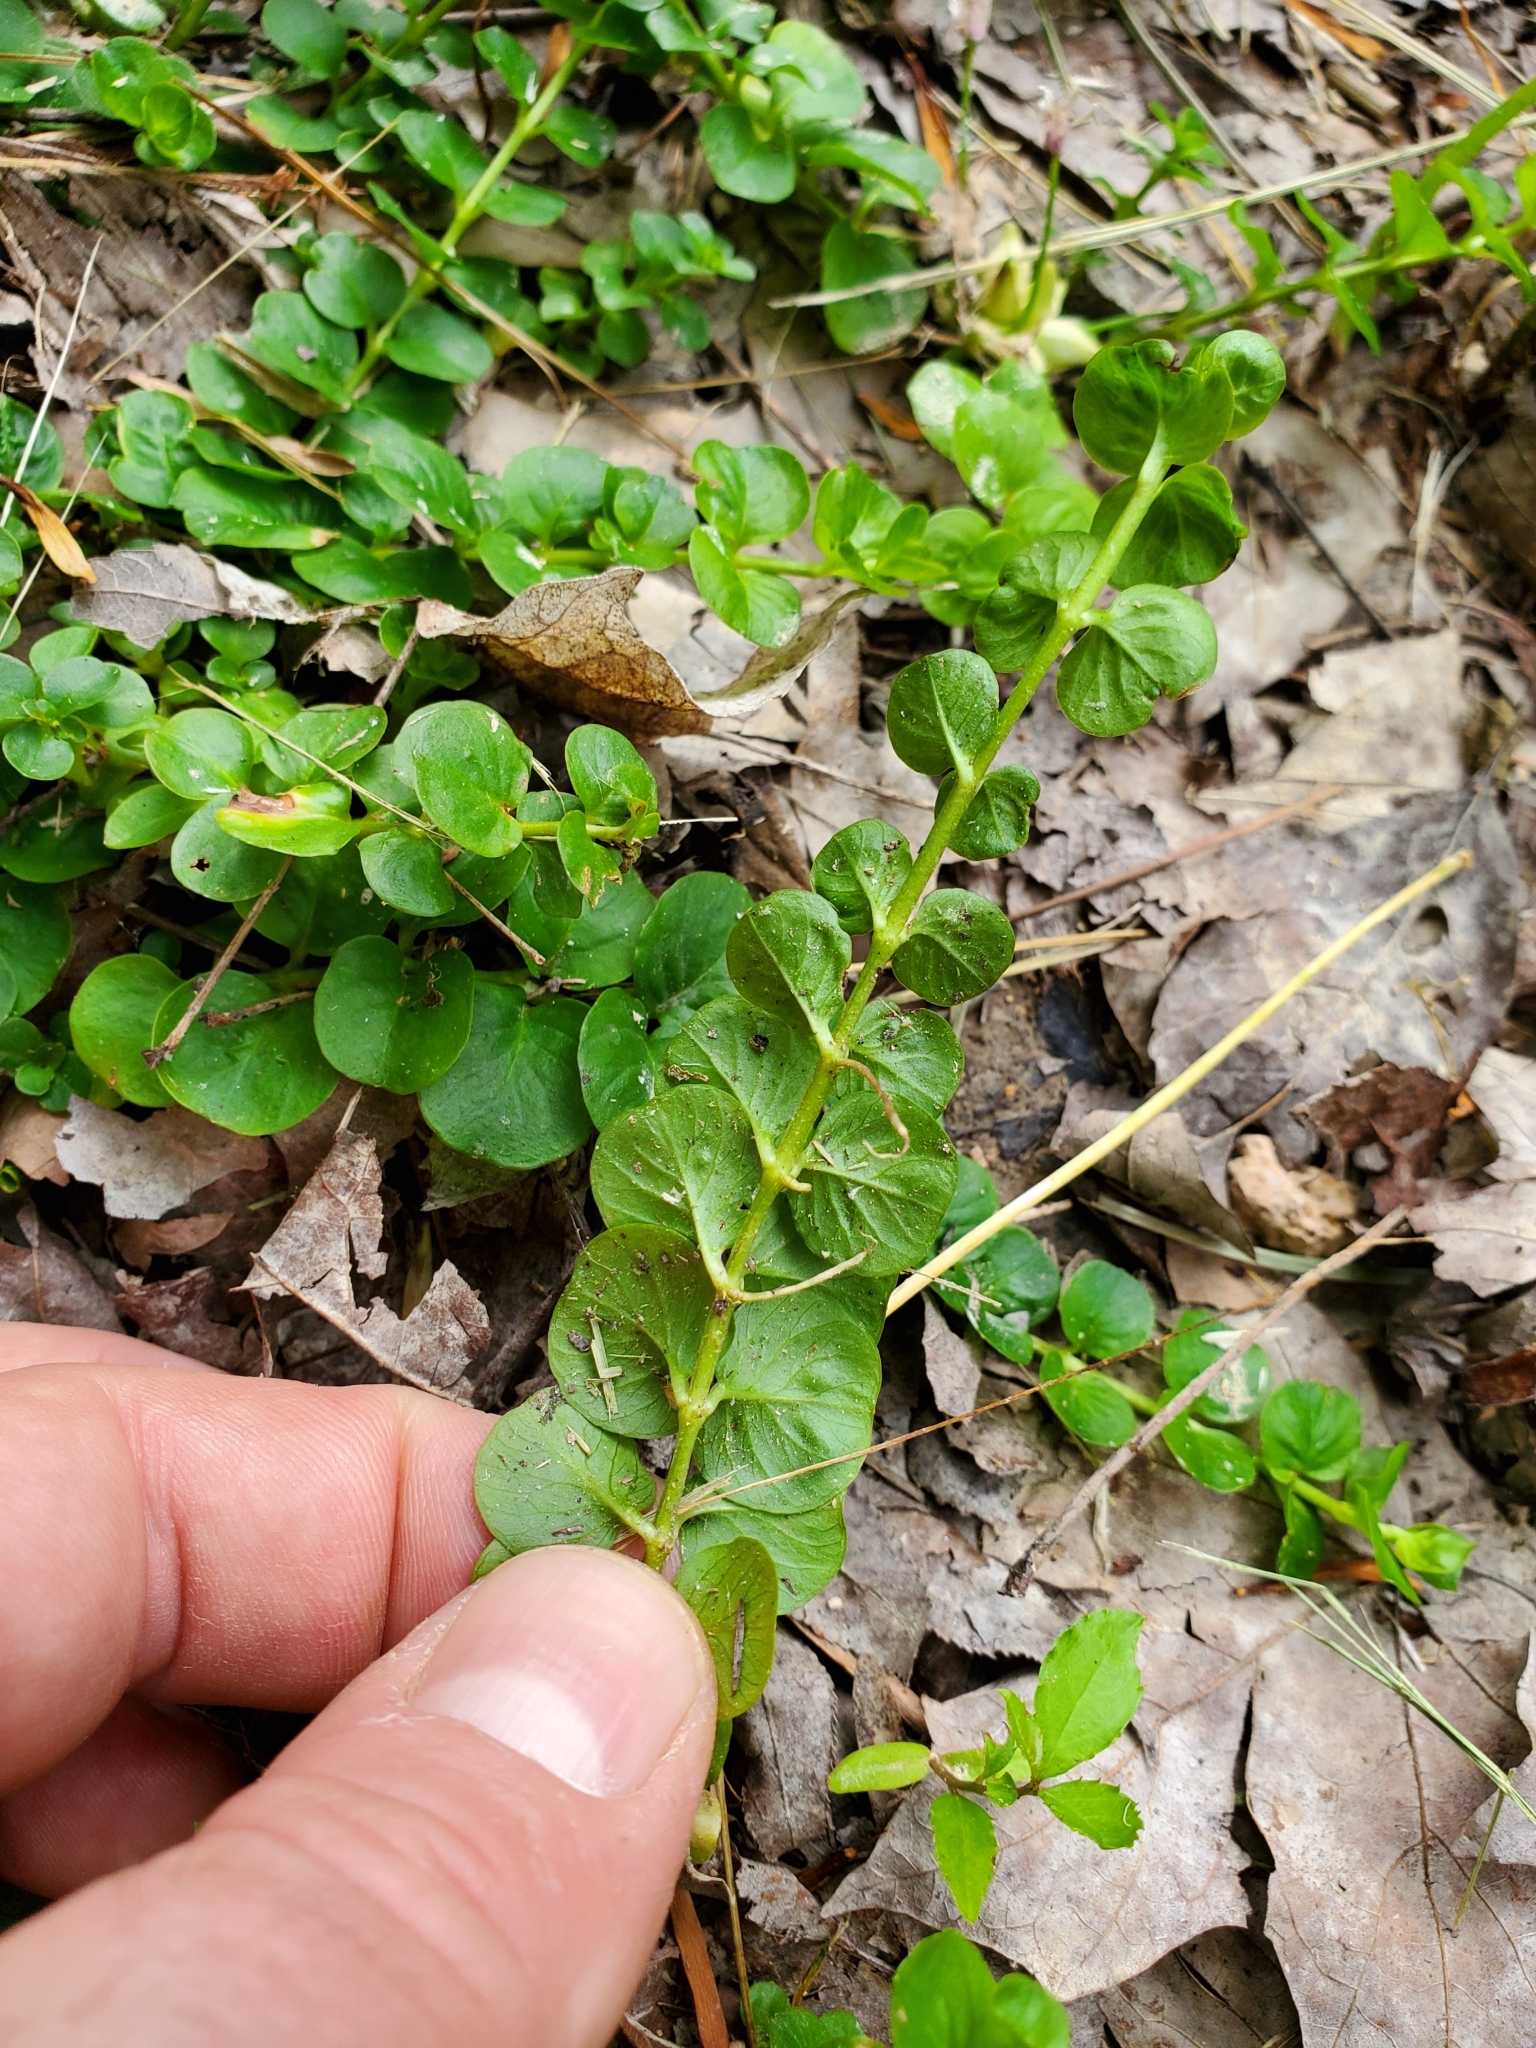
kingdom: Plantae
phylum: Tracheophyta
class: Magnoliopsida
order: Ericales
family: Primulaceae
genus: Lysimachia
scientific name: Lysimachia nummularia
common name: Moneywort
